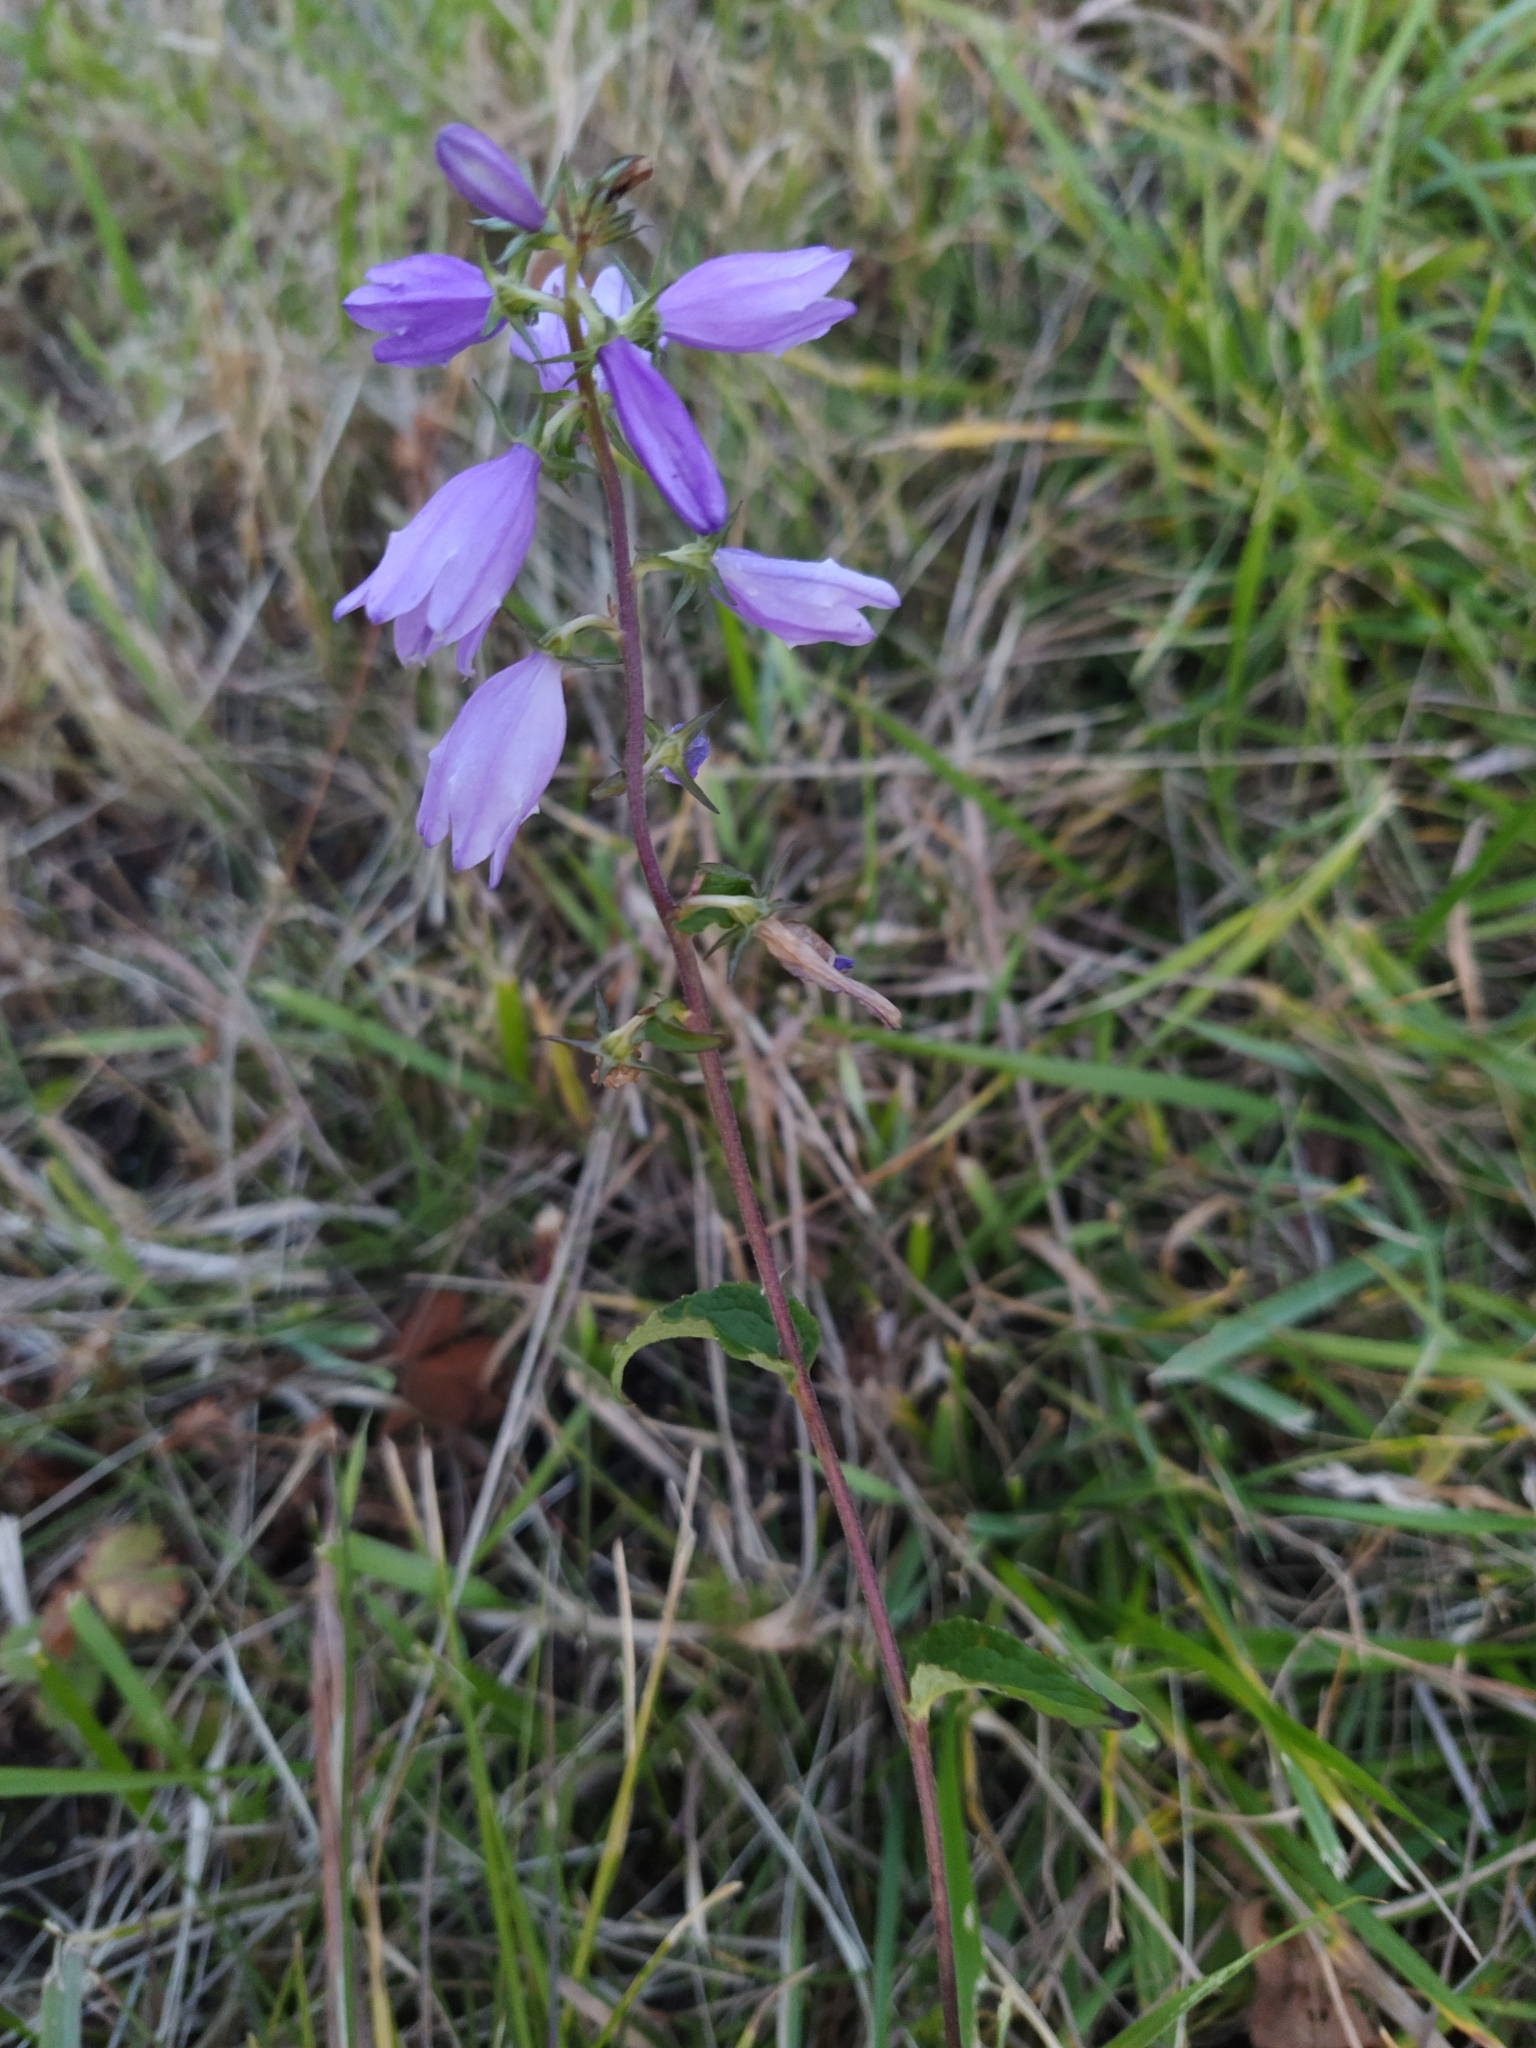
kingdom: Plantae
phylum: Tracheophyta
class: Magnoliopsida
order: Asterales
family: Campanulaceae
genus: Campanula
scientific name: Campanula rapunculoides
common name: Creeping bellflower
